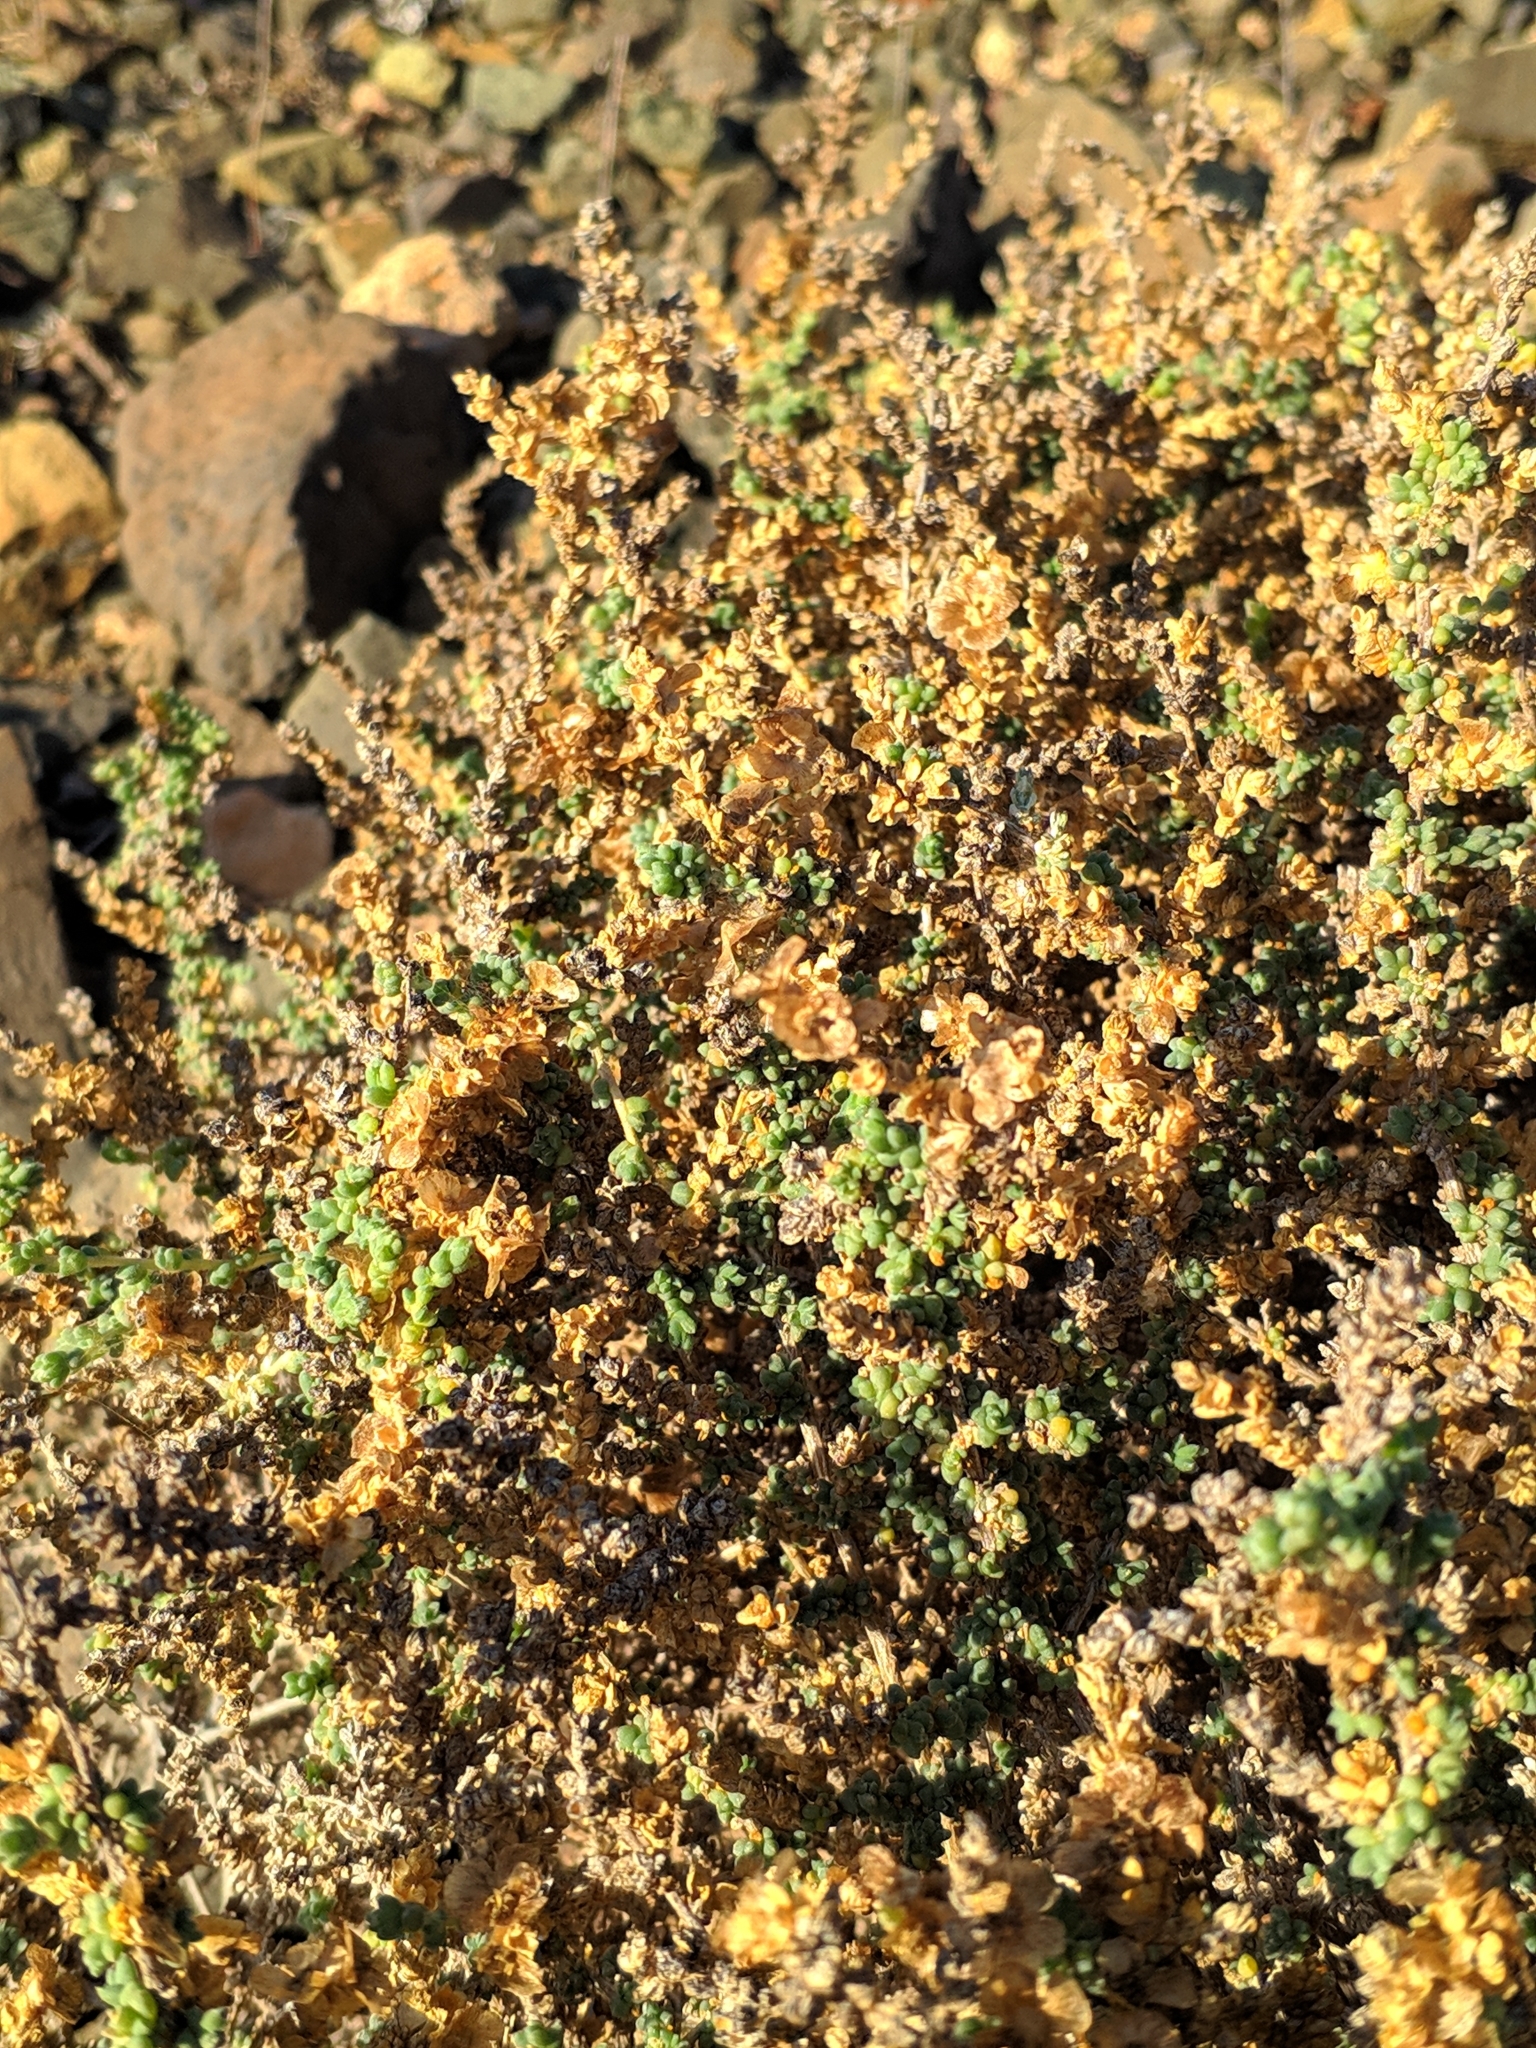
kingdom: Plantae
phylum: Tracheophyta
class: Magnoliopsida
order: Caryophyllales
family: Amaranthaceae
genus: Nitrosalsola
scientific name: Nitrosalsola vermiculata
